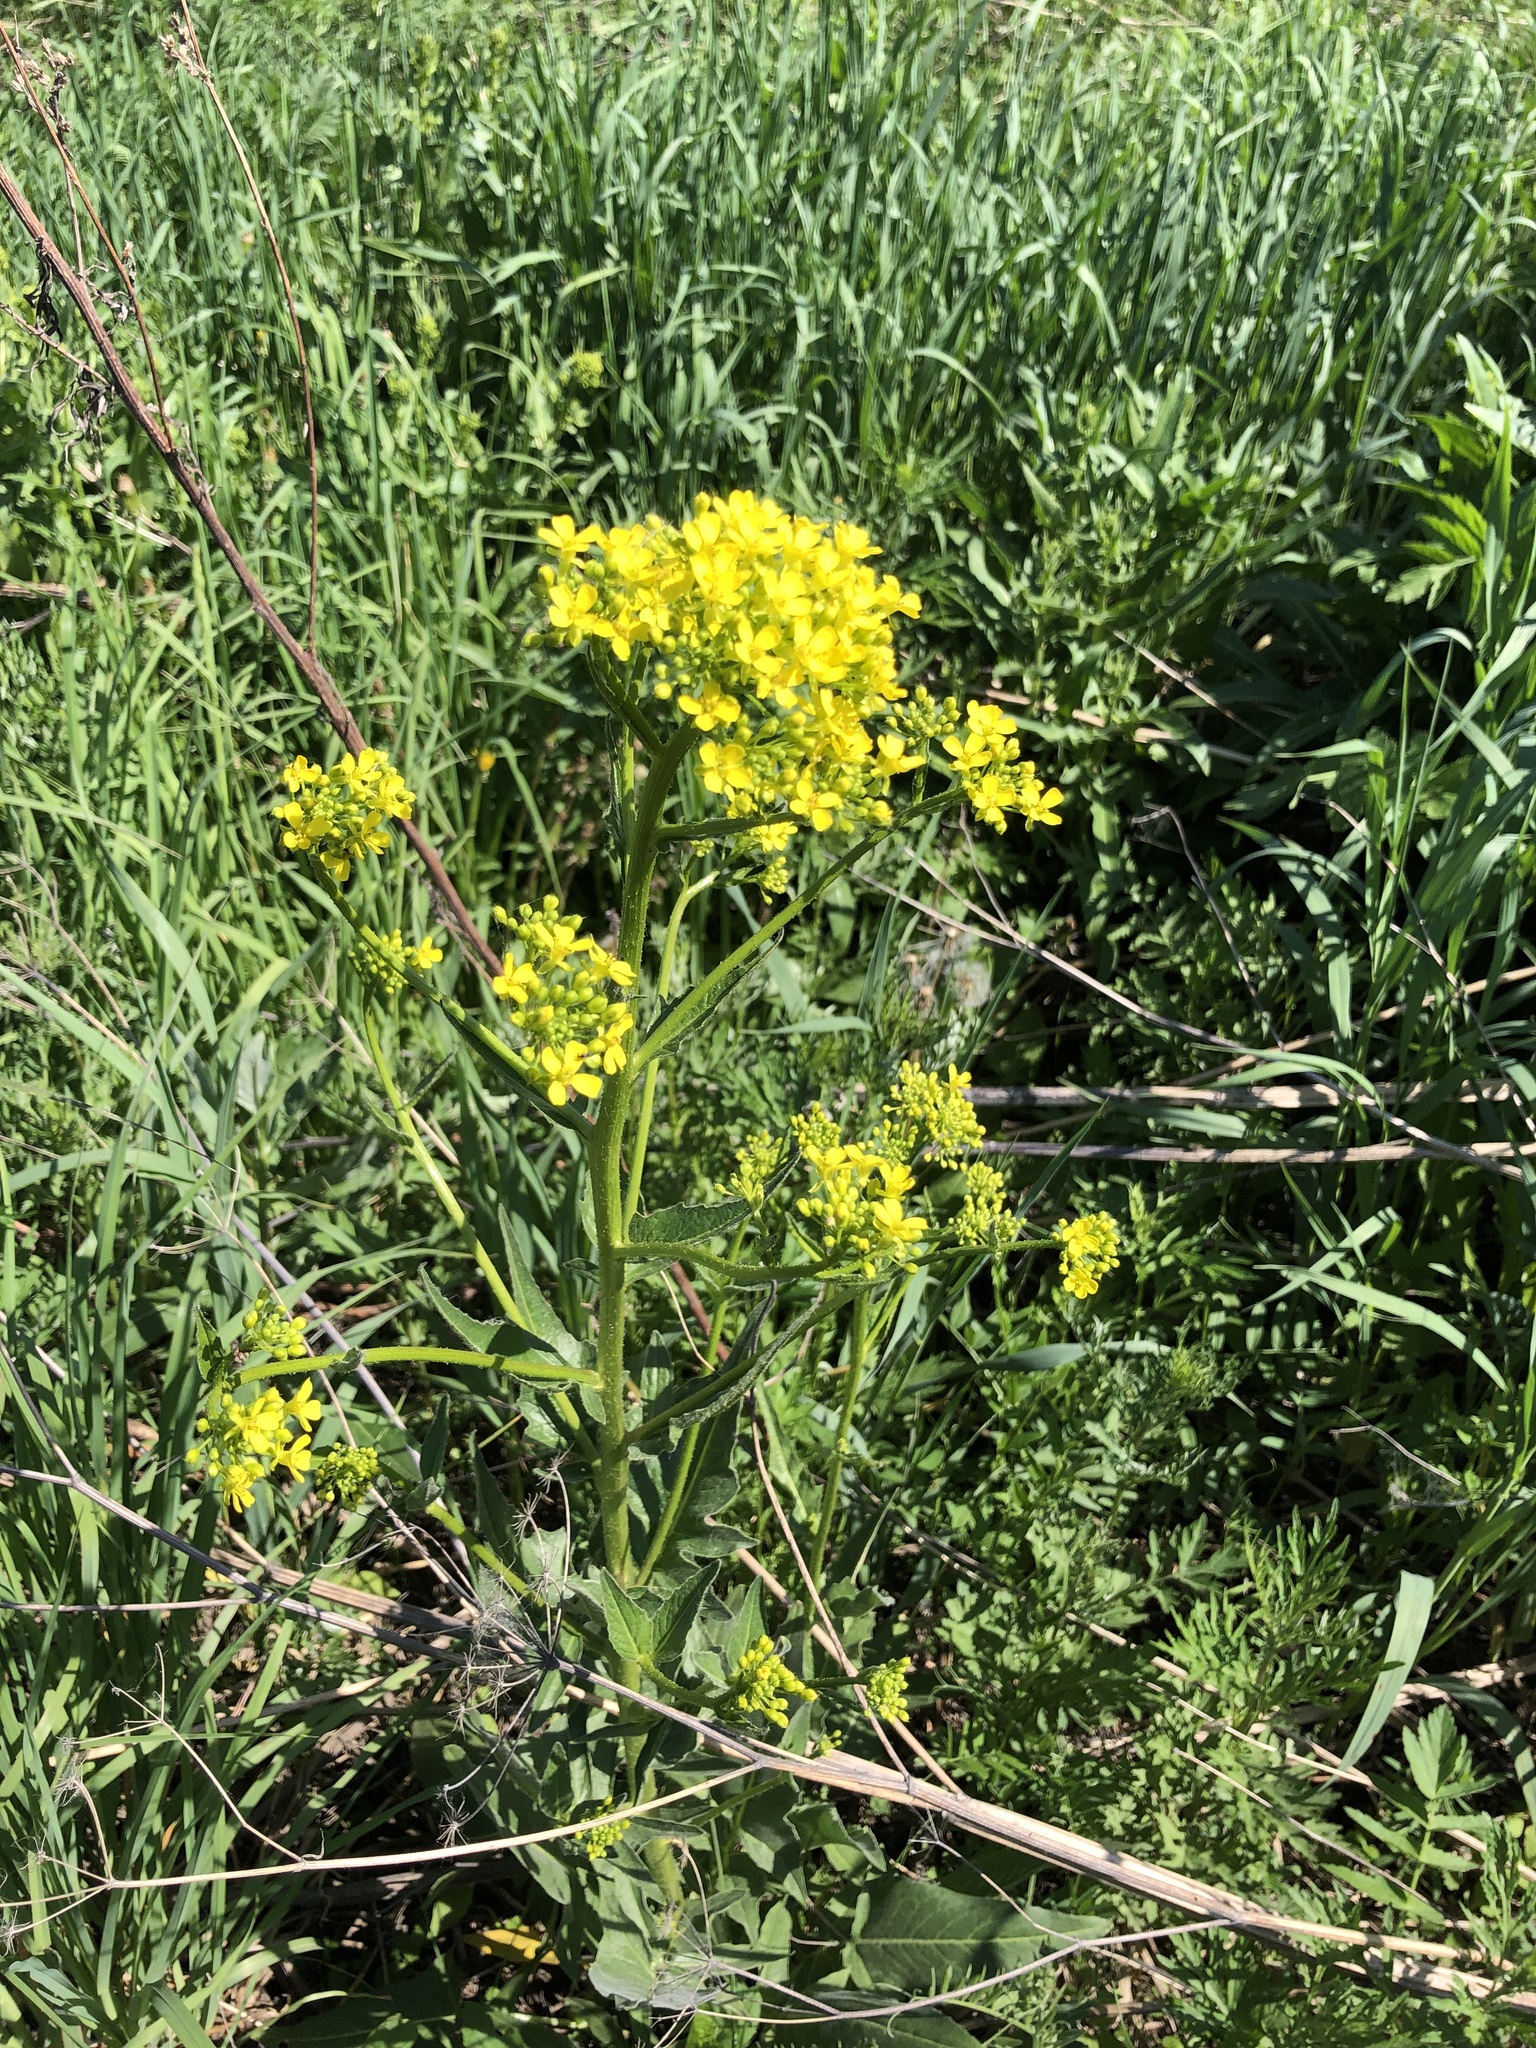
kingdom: Plantae
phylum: Tracheophyta
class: Magnoliopsida
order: Brassicales
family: Brassicaceae
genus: Bunias
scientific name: Bunias orientalis
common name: Warty-cabbage
